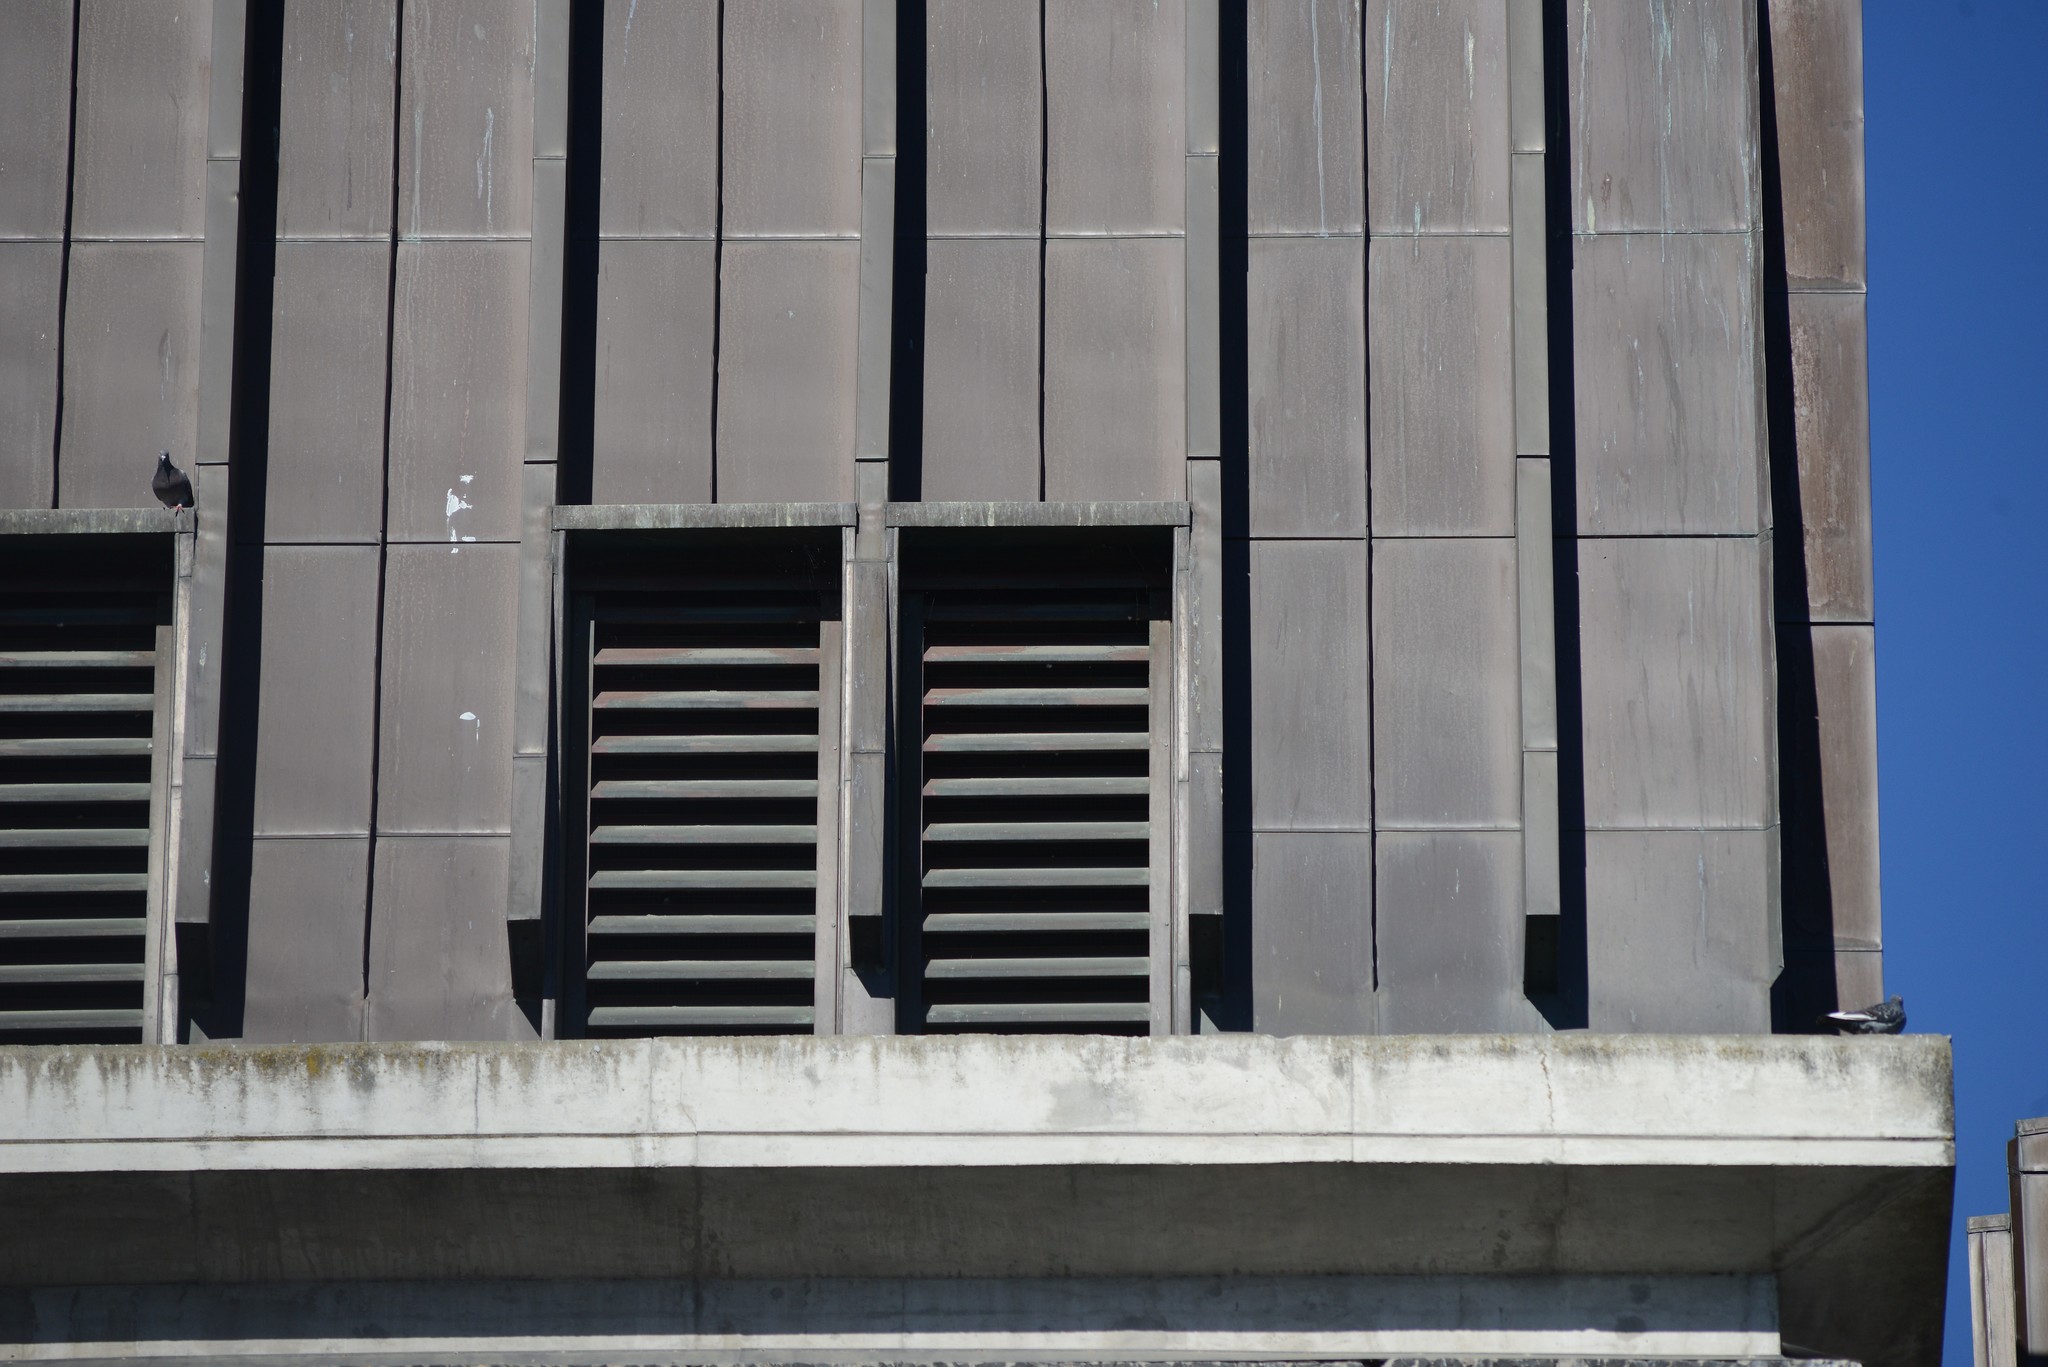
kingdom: Animalia
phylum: Chordata
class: Aves
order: Columbiformes
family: Columbidae
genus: Columba
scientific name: Columba livia
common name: Rock pigeon
